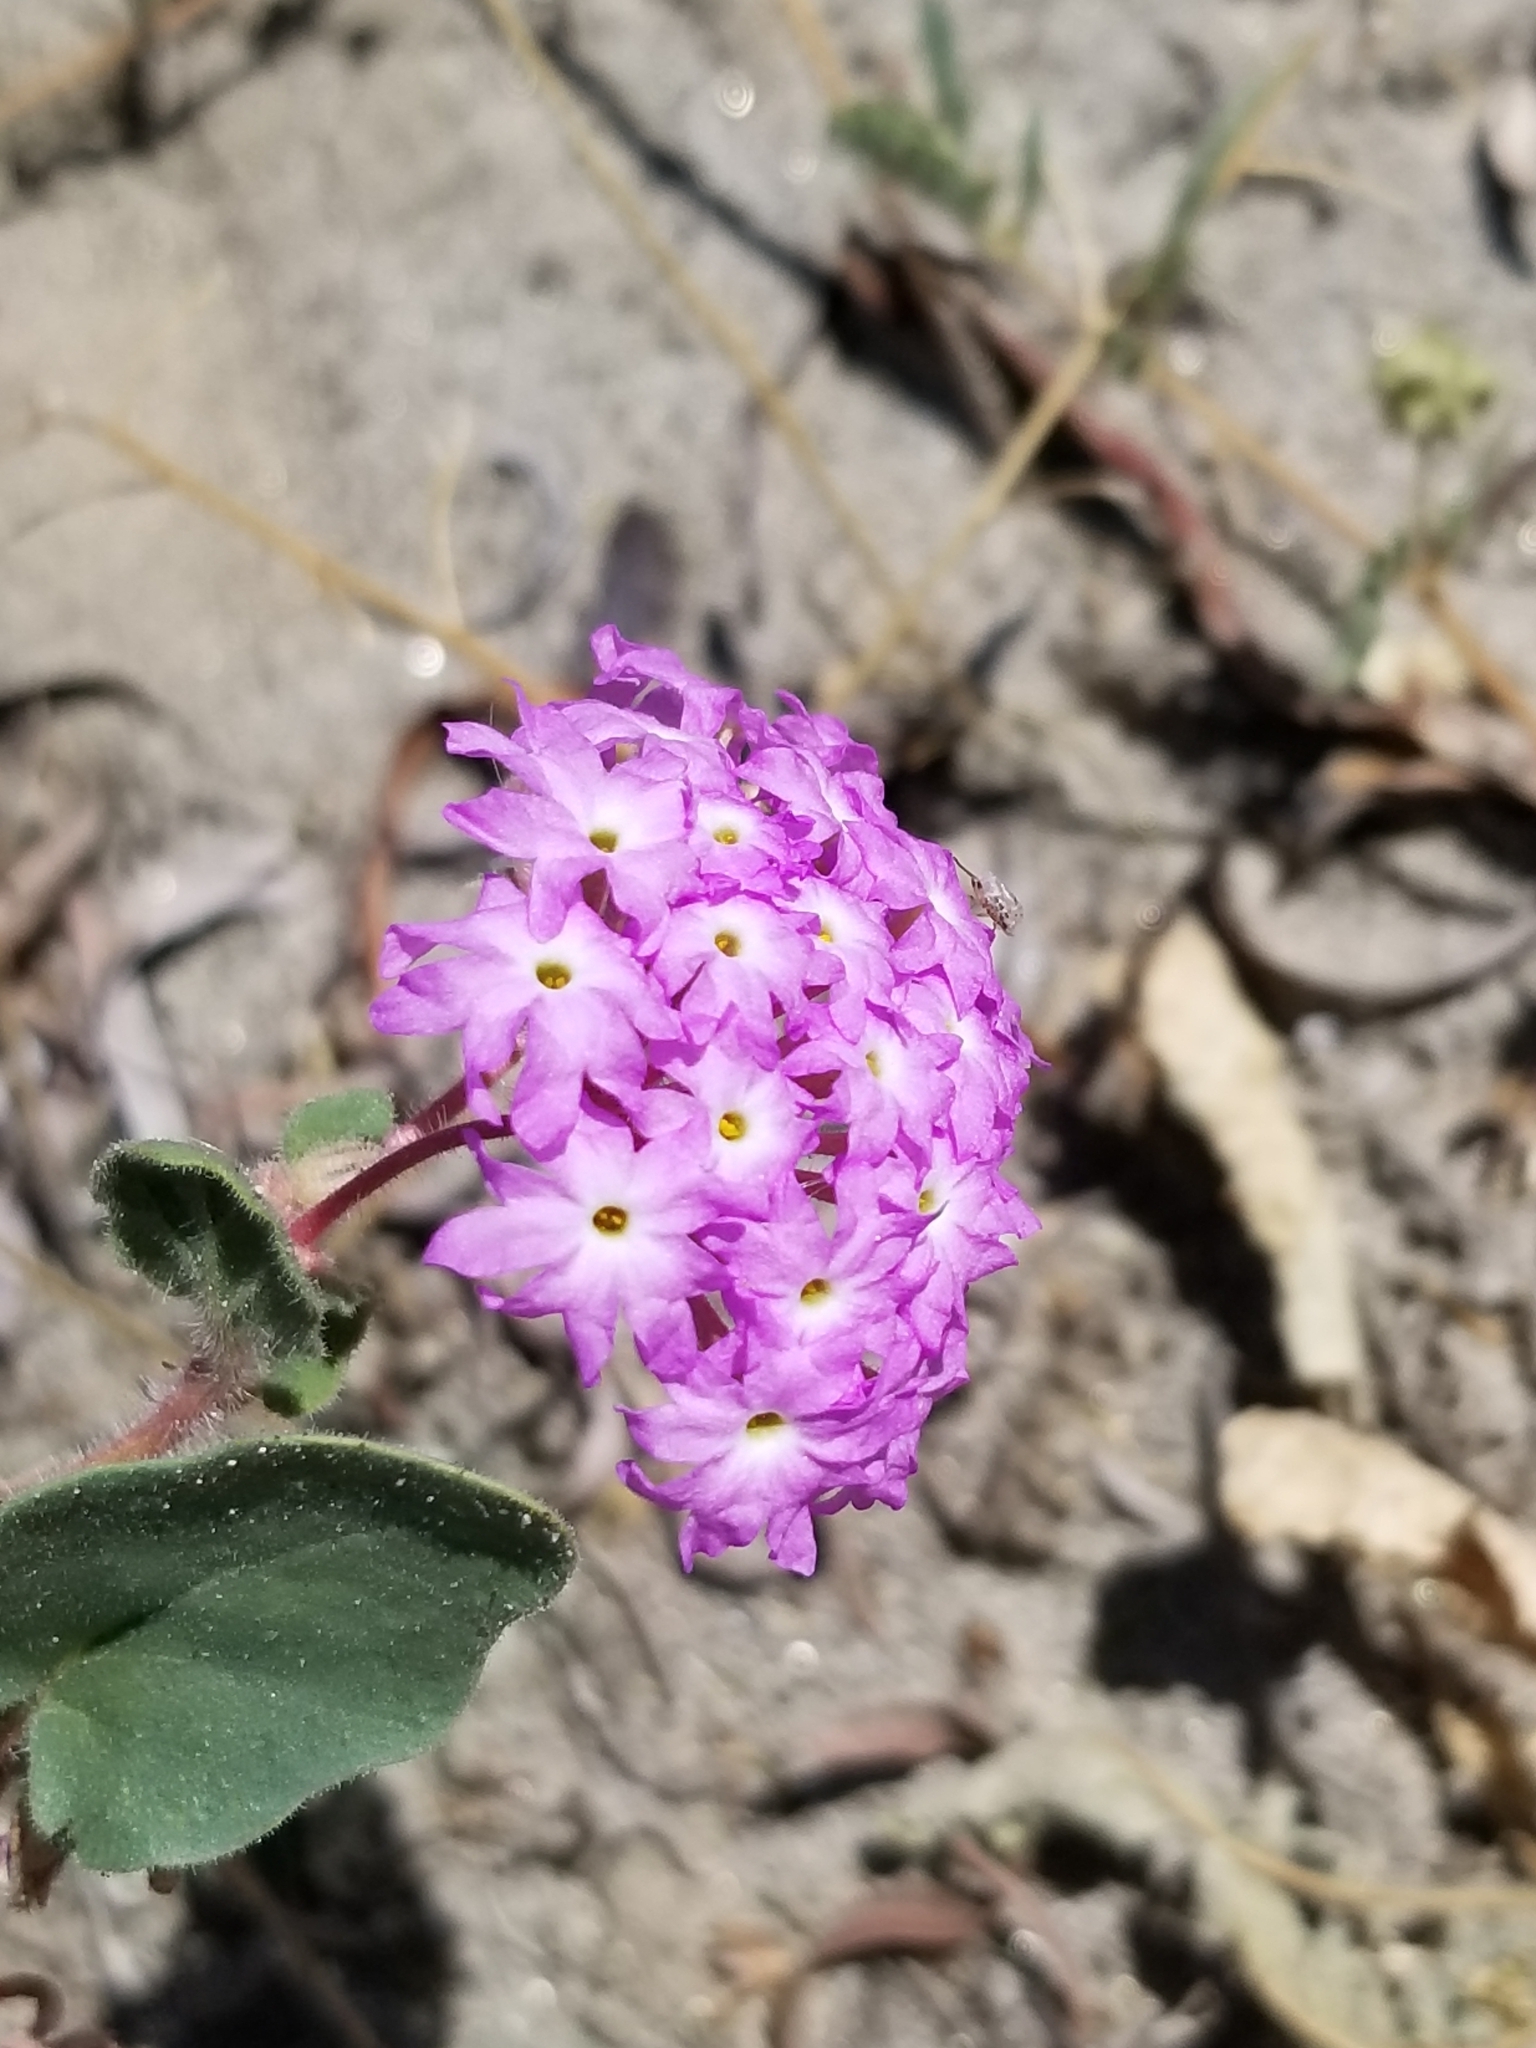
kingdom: Plantae
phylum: Tracheophyta
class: Magnoliopsida
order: Caryophyllales
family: Nyctaginaceae
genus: Abronia
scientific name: Abronia villosa
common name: Desert sand-verbena
